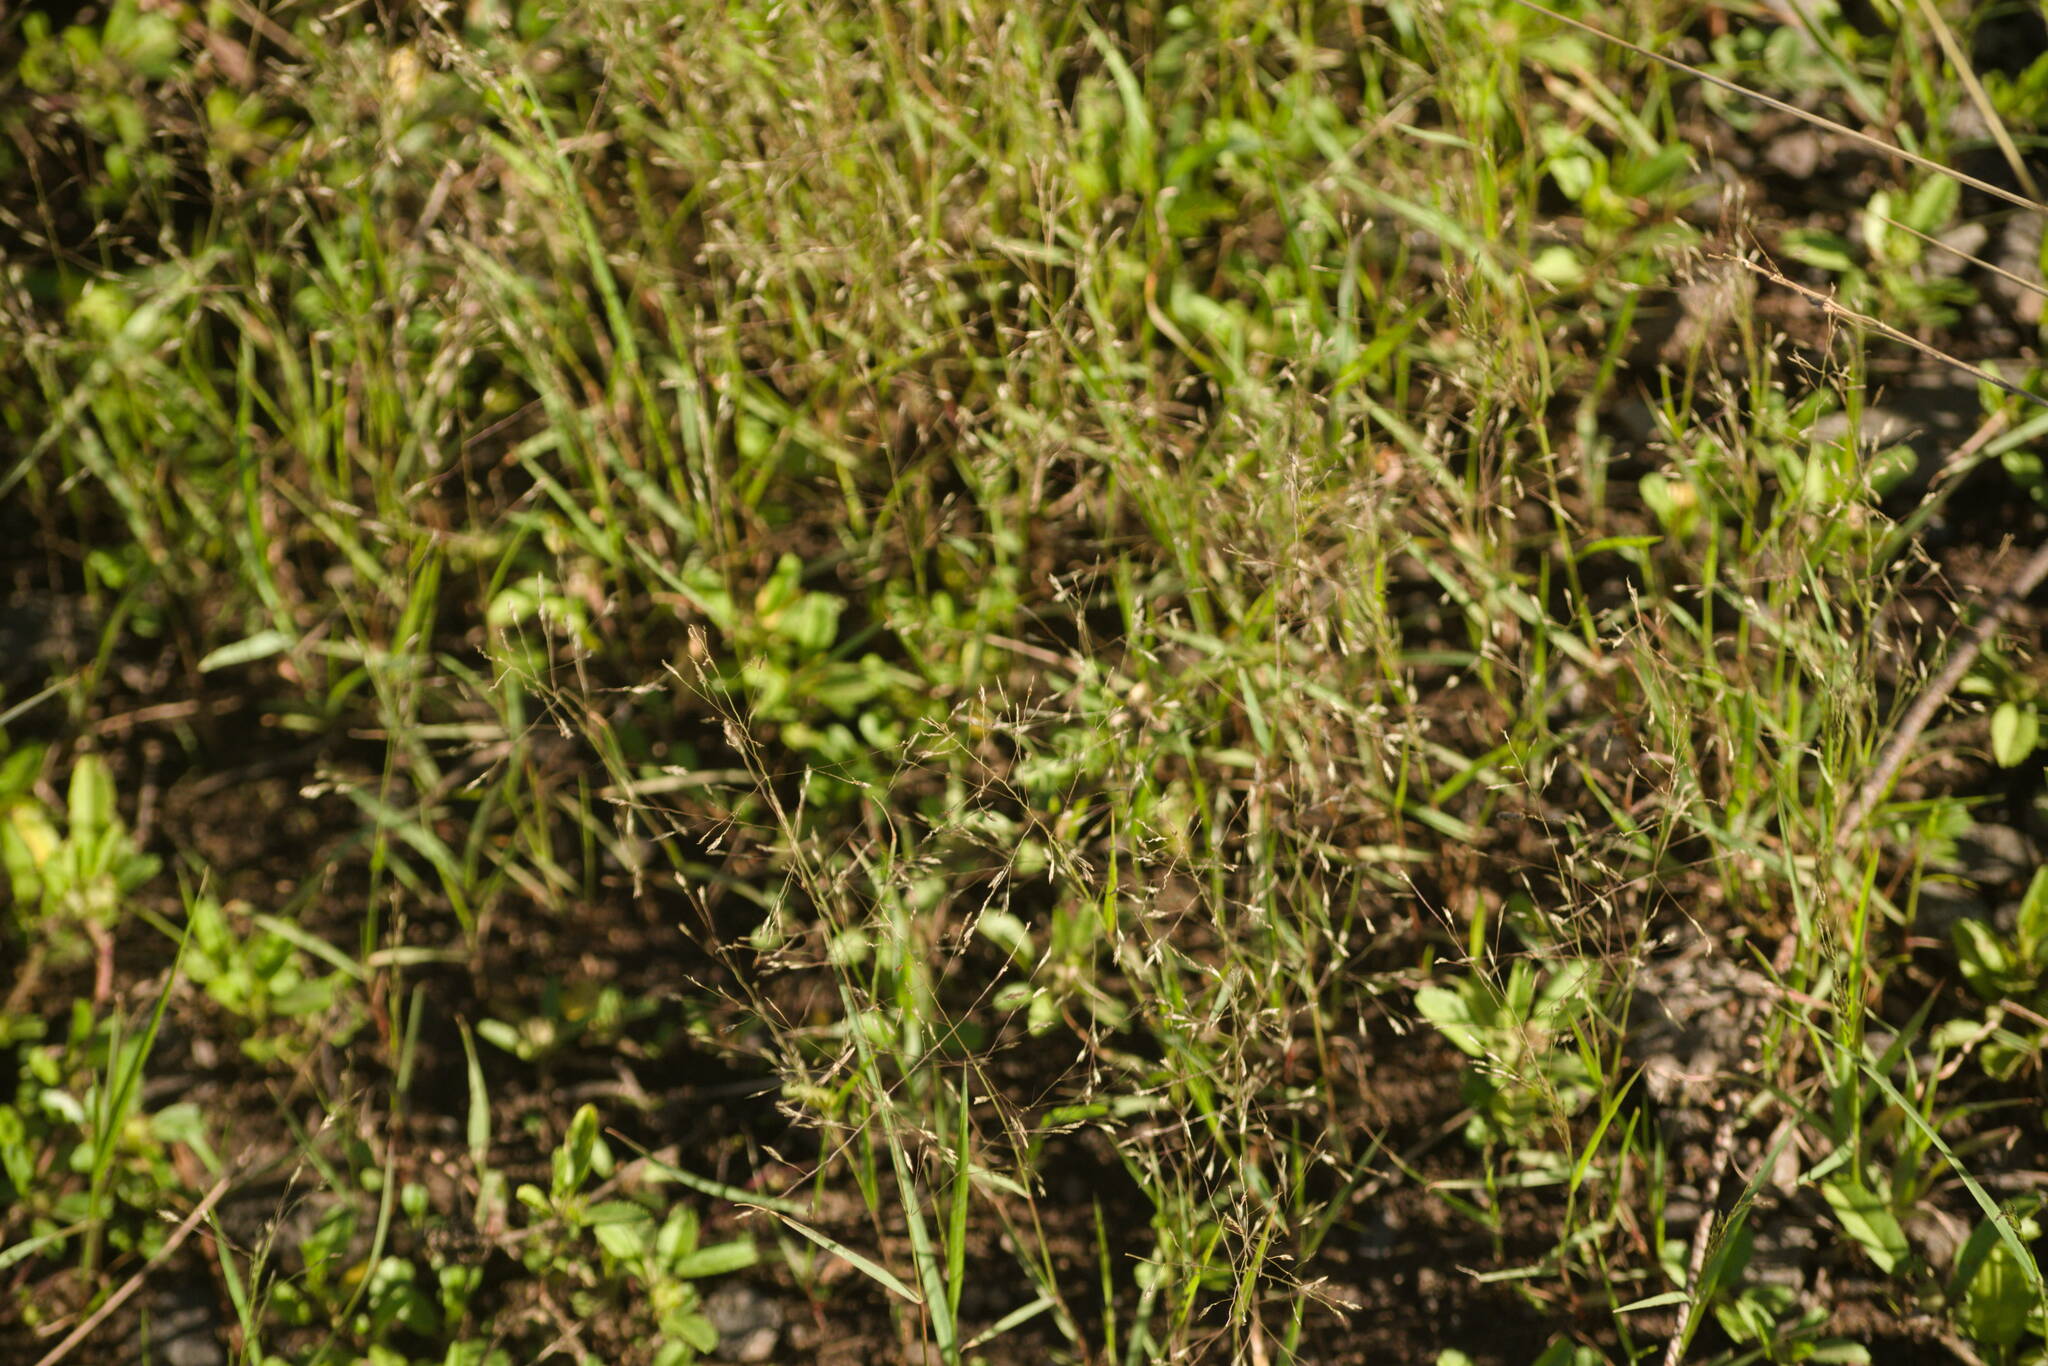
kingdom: Plantae
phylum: Tracheophyta
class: Liliopsida
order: Poales
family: Poaceae
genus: Eragrostis
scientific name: Eragrostis pilosa
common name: Indian lovegrass
